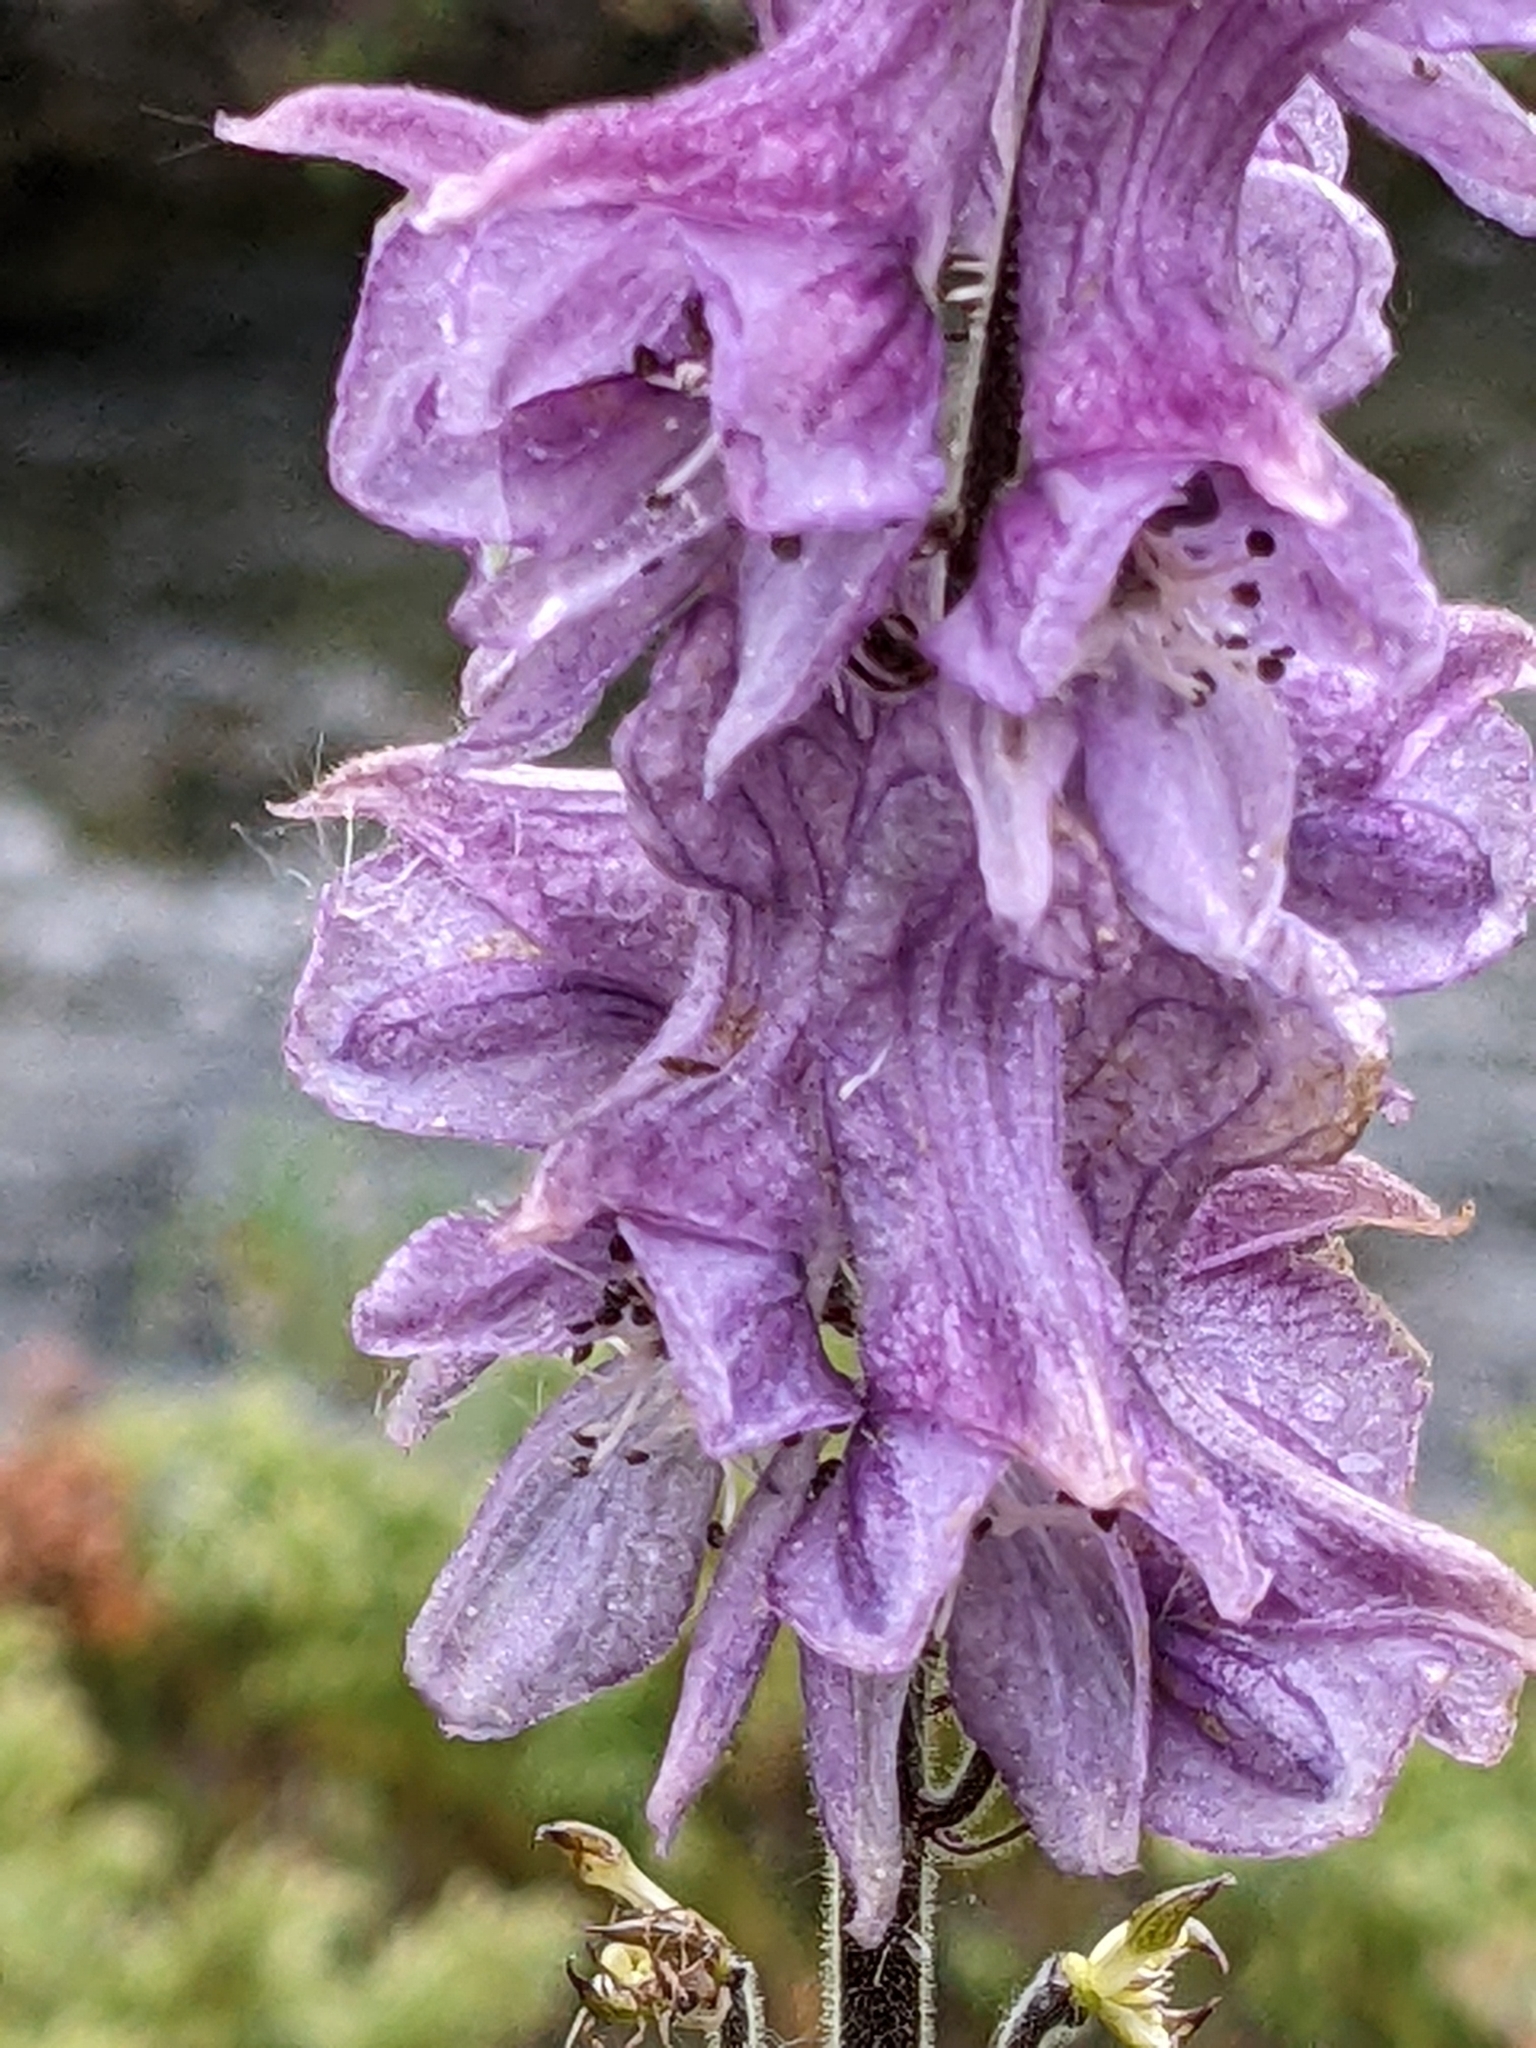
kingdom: Plantae
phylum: Tracheophyta
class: Magnoliopsida
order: Ranunculales
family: Ranunculaceae
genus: Aconitum
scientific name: Aconitum septentrionale
